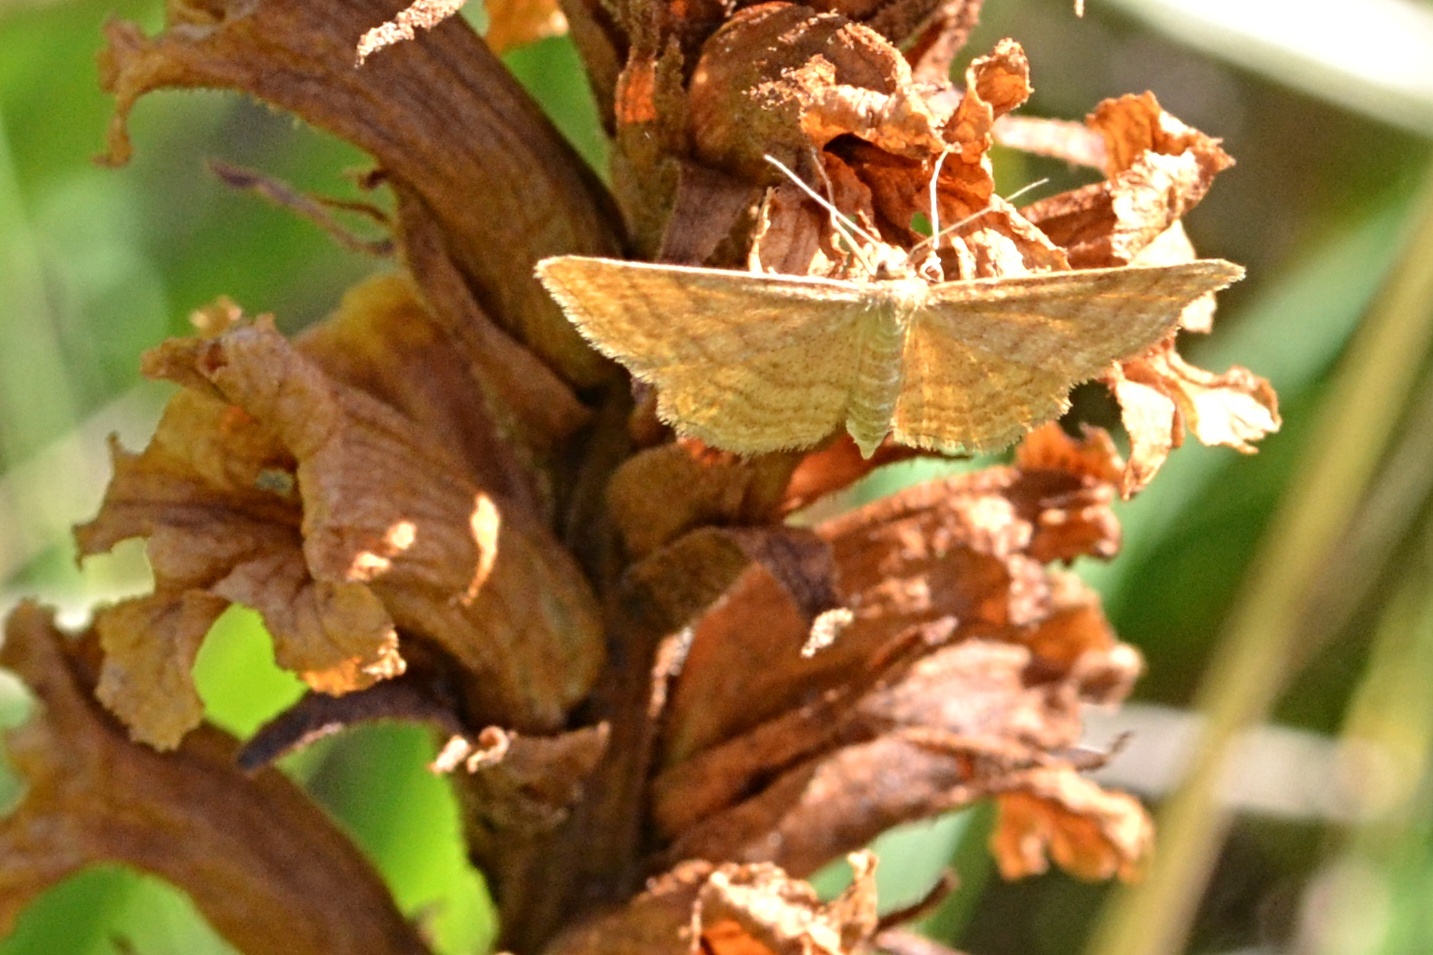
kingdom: Animalia
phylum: Arthropoda
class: Insecta
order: Lepidoptera
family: Geometridae
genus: Idaea
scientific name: Idaea ochrata
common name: Bright wave
